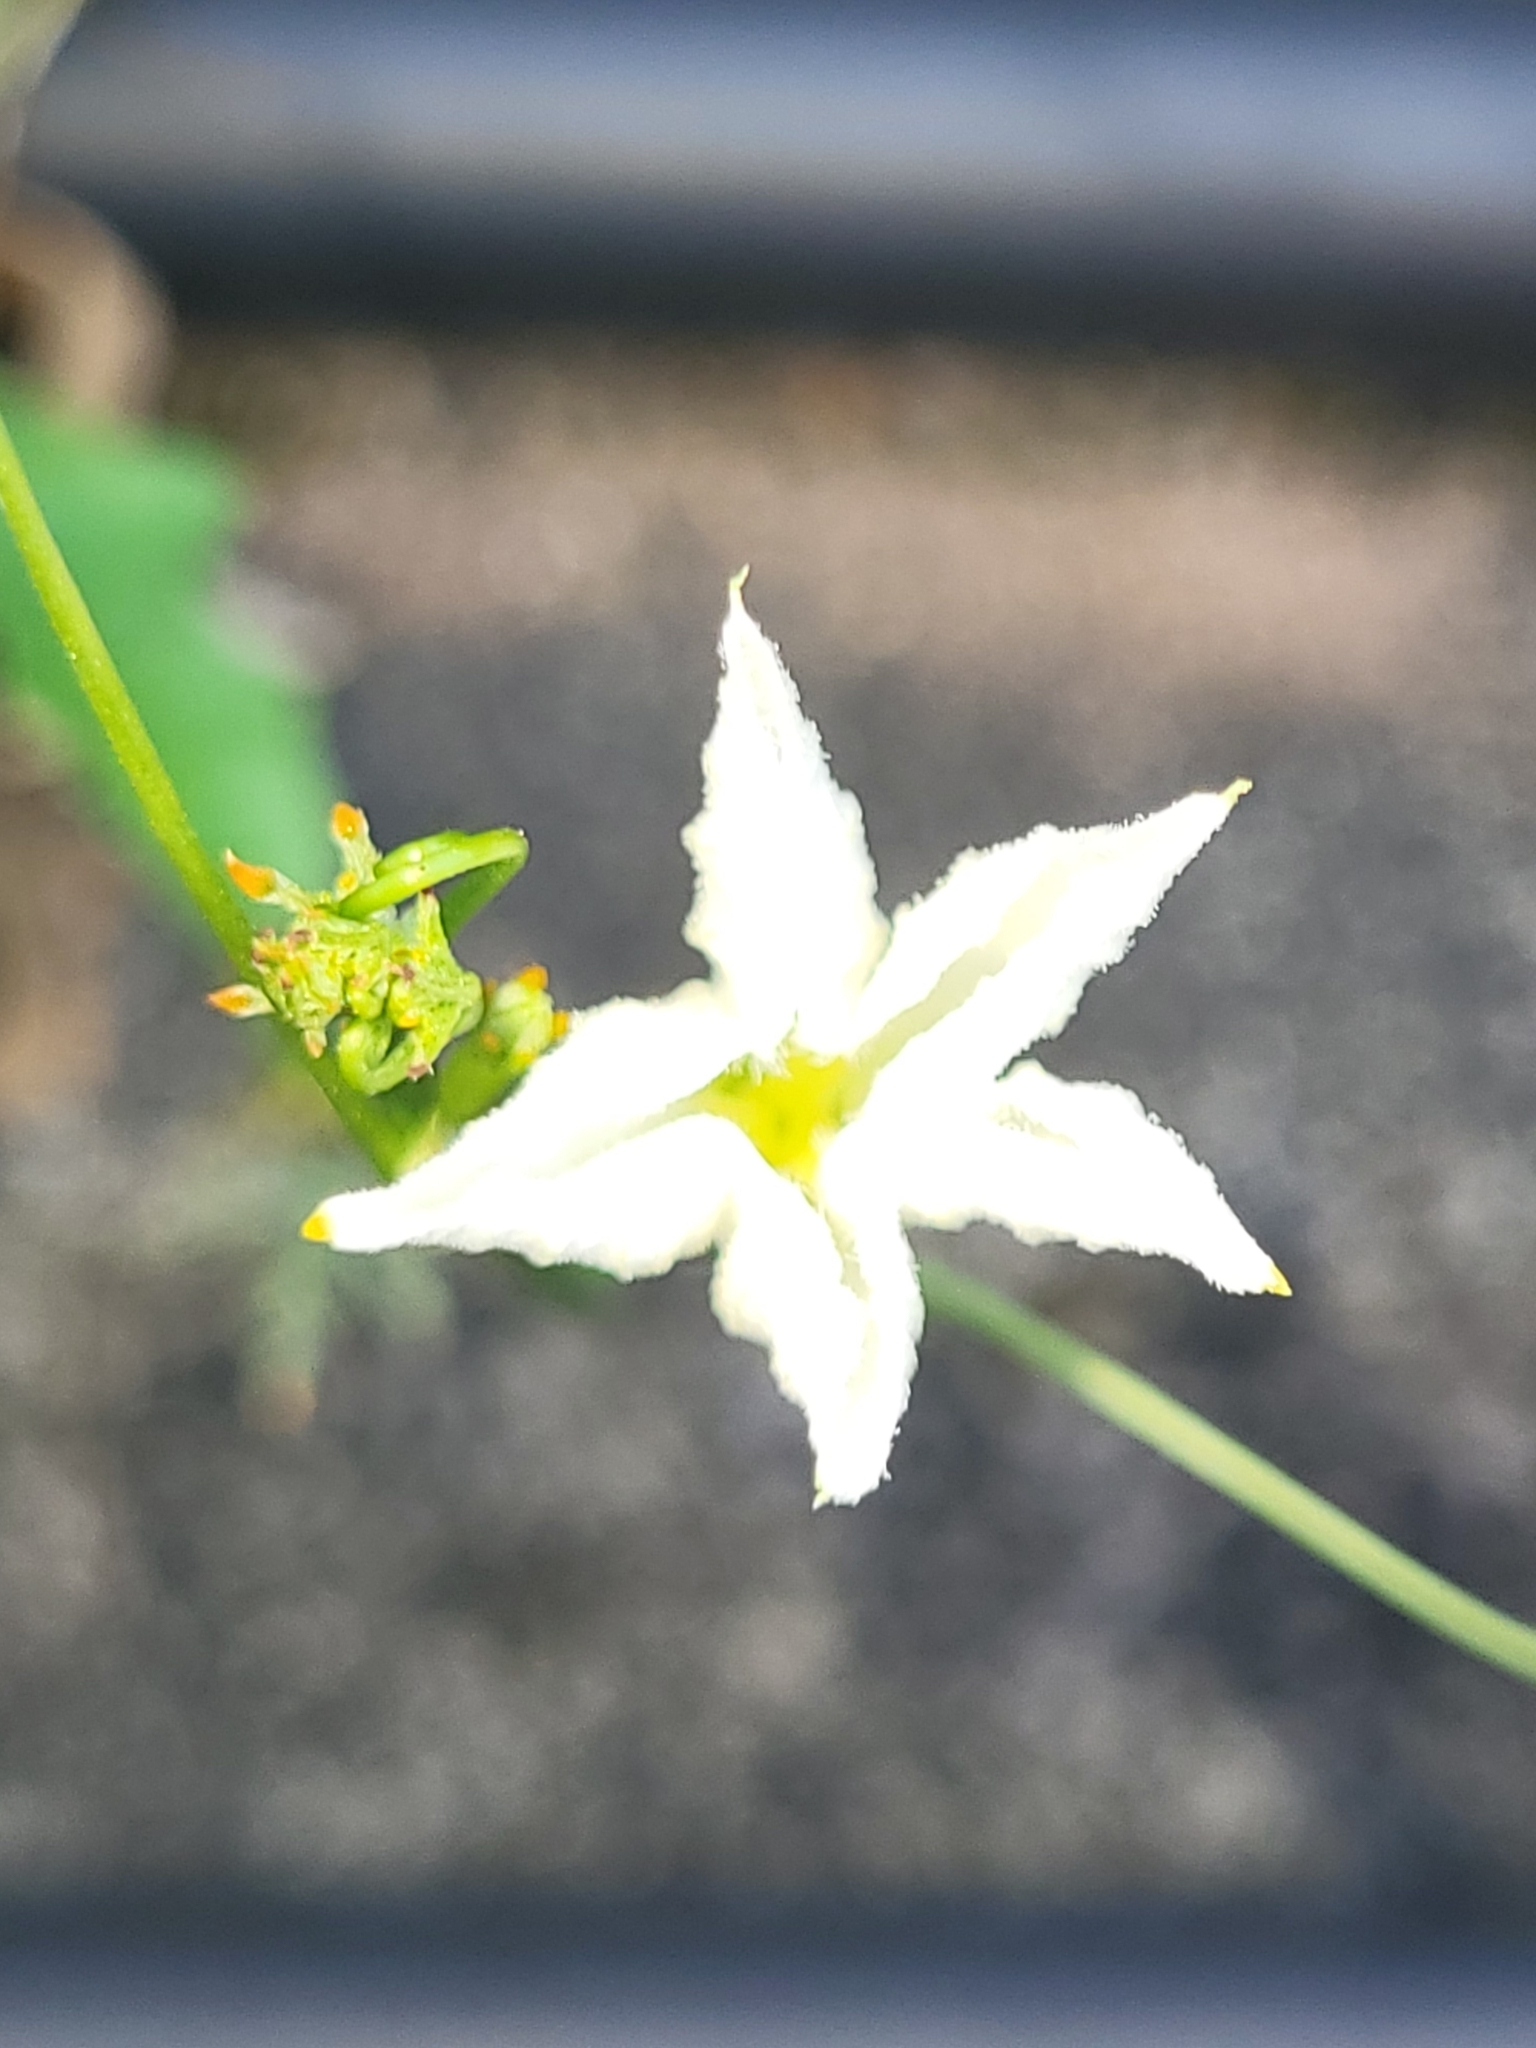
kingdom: Plantae
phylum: Tracheophyta
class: Magnoliopsida
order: Cucurbitales
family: Cucurbitaceae
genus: Coccinia
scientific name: Coccinia grandis
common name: Ivy gourd
